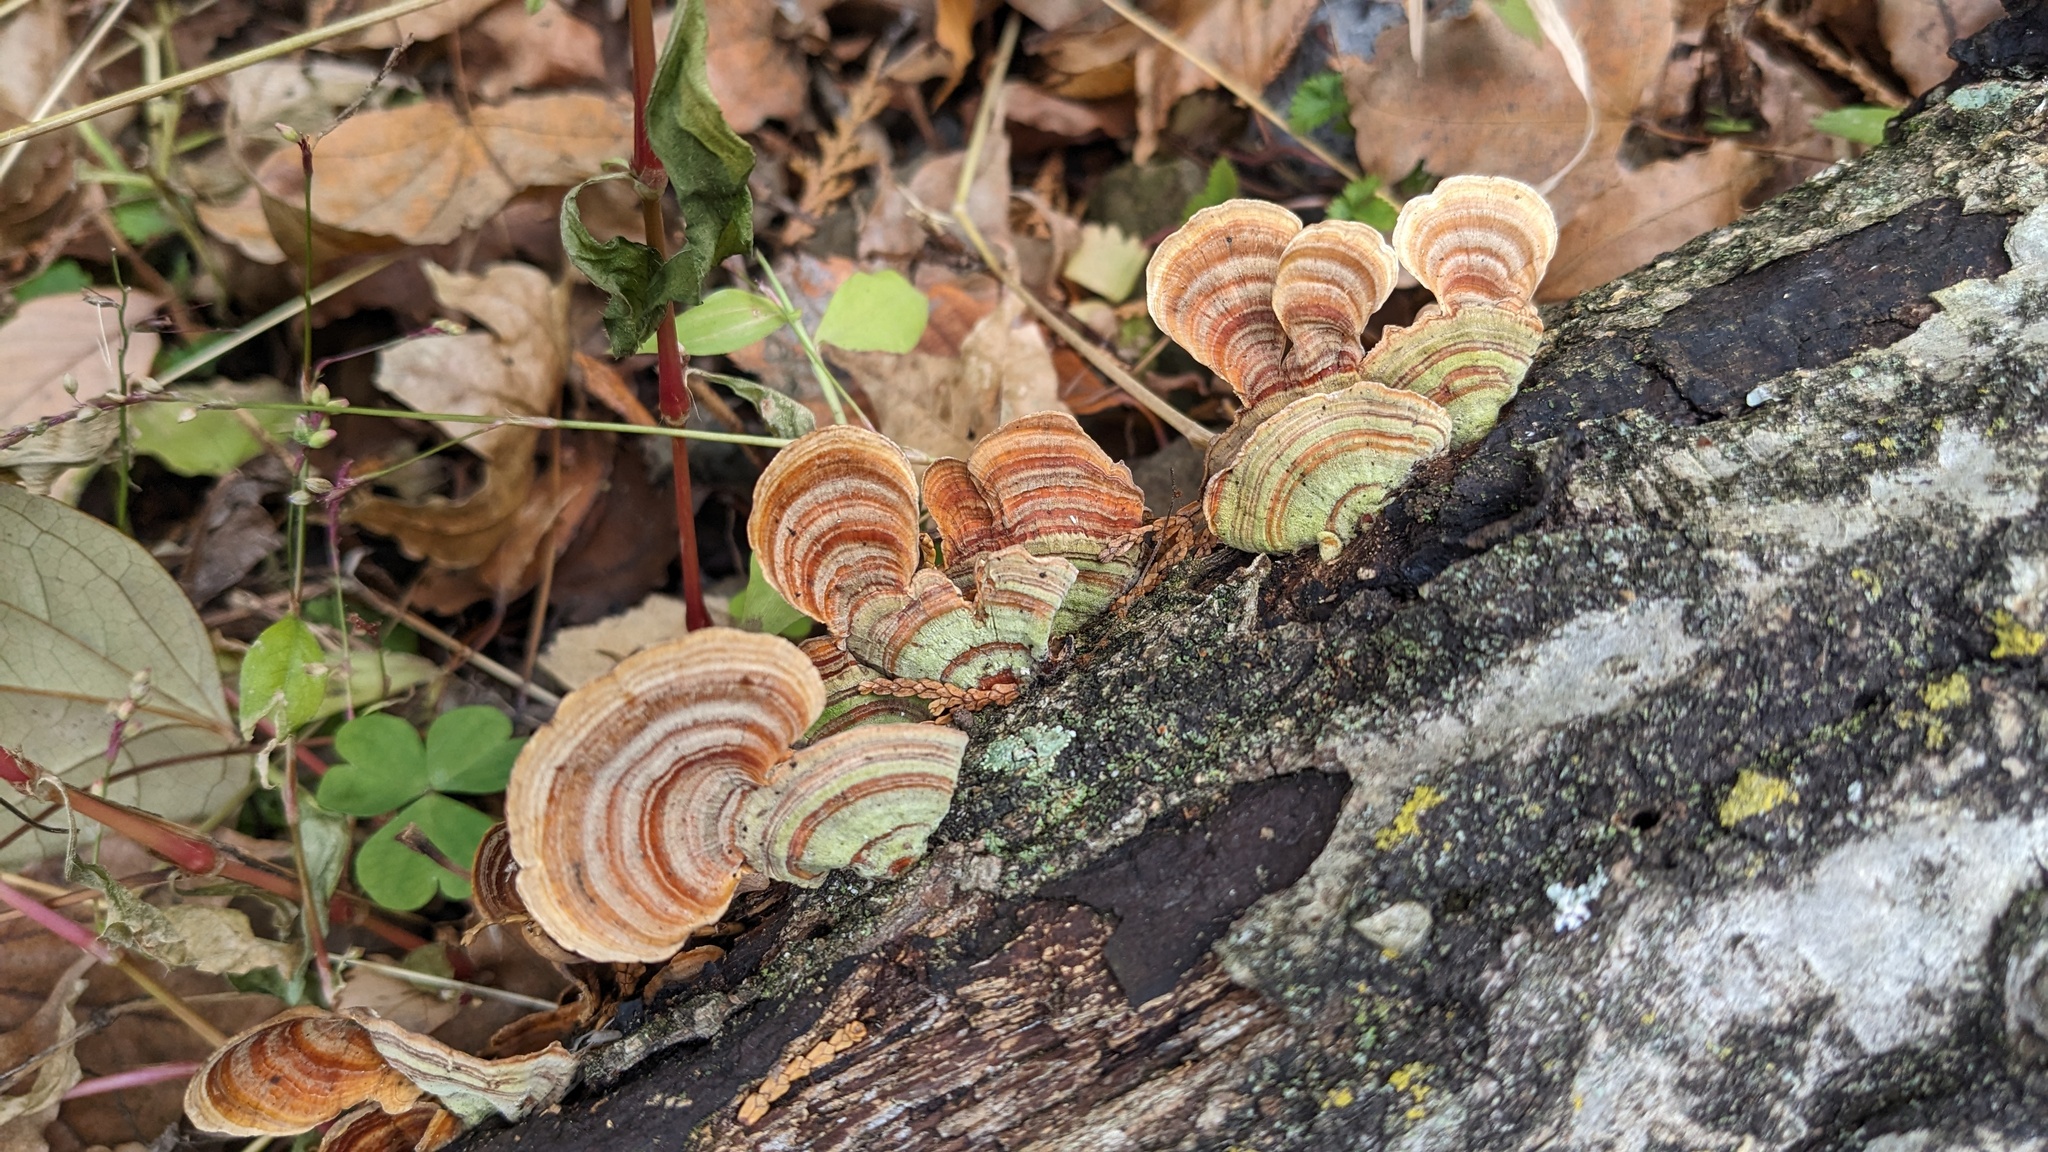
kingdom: Fungi
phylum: Basidiomycota
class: Agaricomycetes
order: Russulales
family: Stereaceae
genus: Stereum
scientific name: Stereum ostrea
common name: False turkeytail
